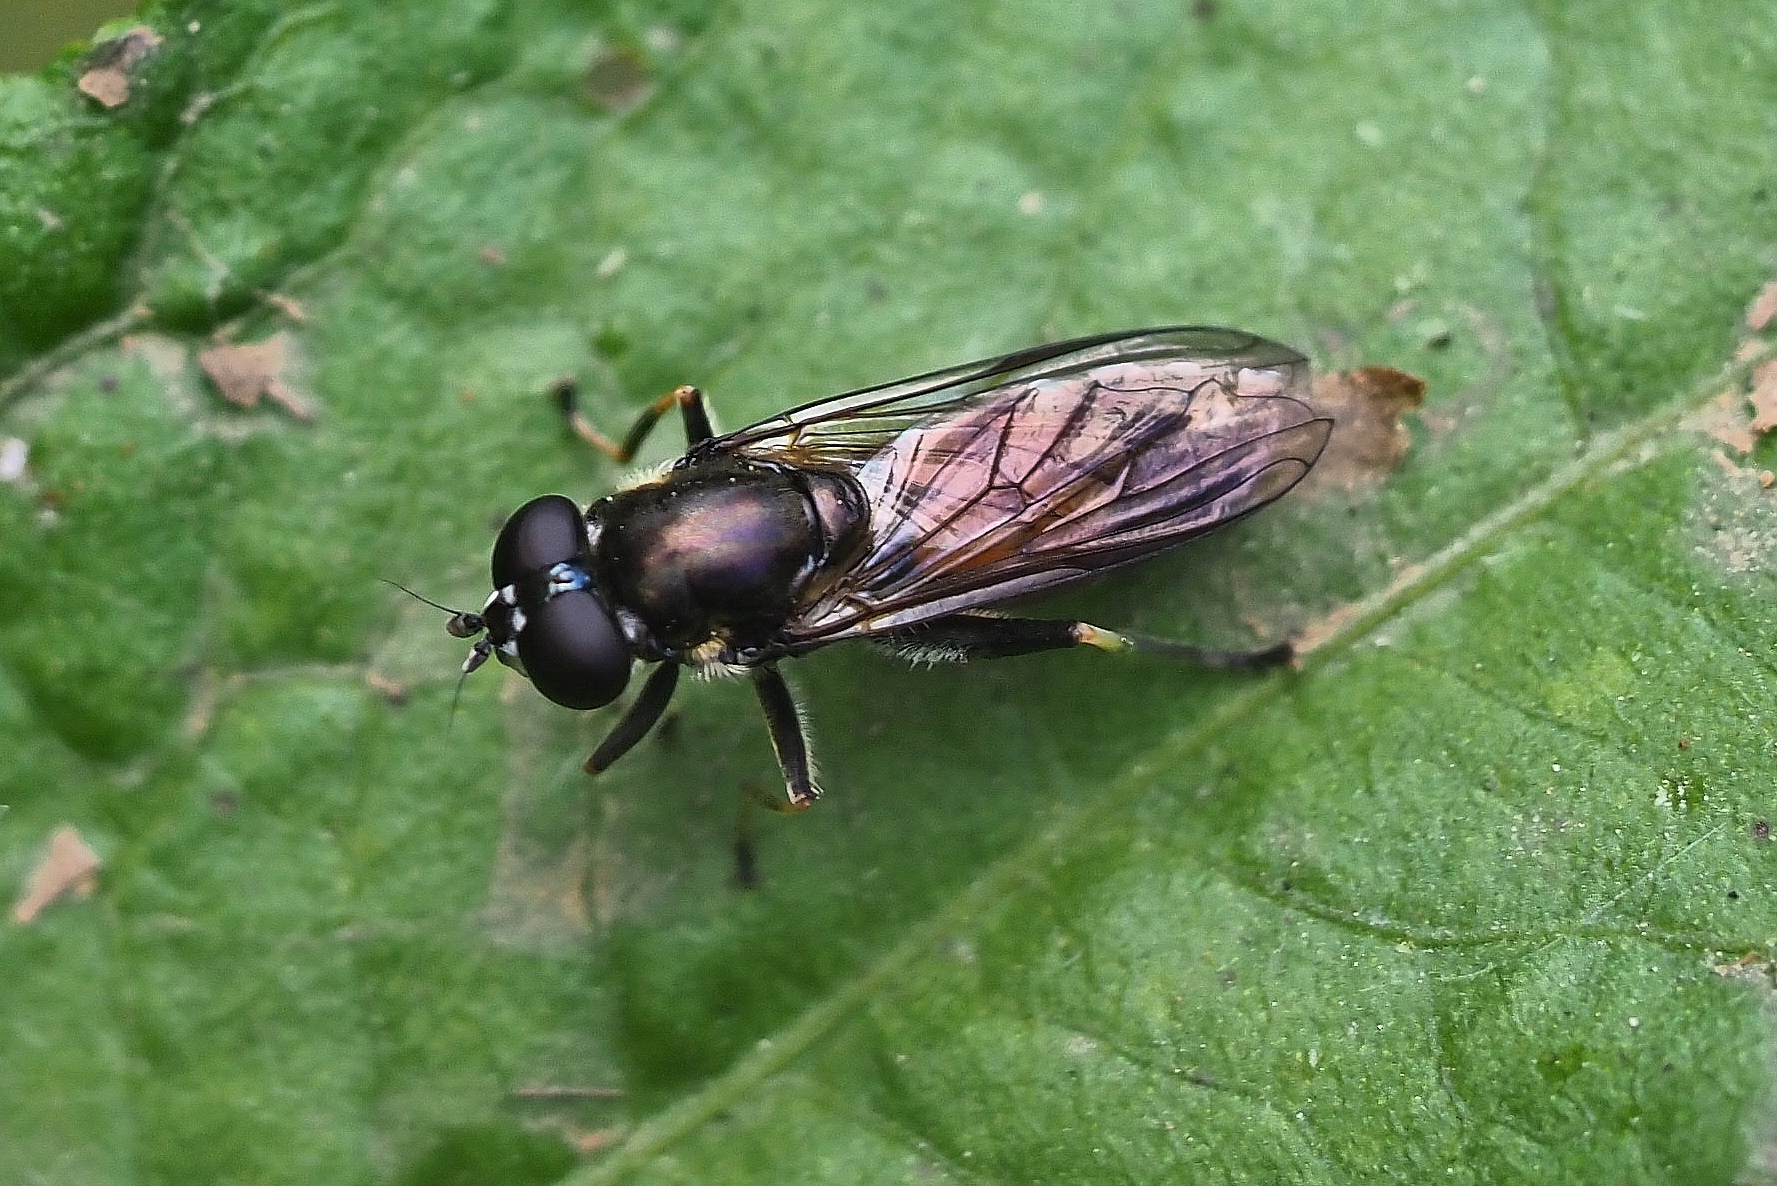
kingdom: Animalia
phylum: Arthropoda
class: Insecta
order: Diptera
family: Syrphidae
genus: Xylota
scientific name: Xylota segnis
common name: Brown-toed forest fly
